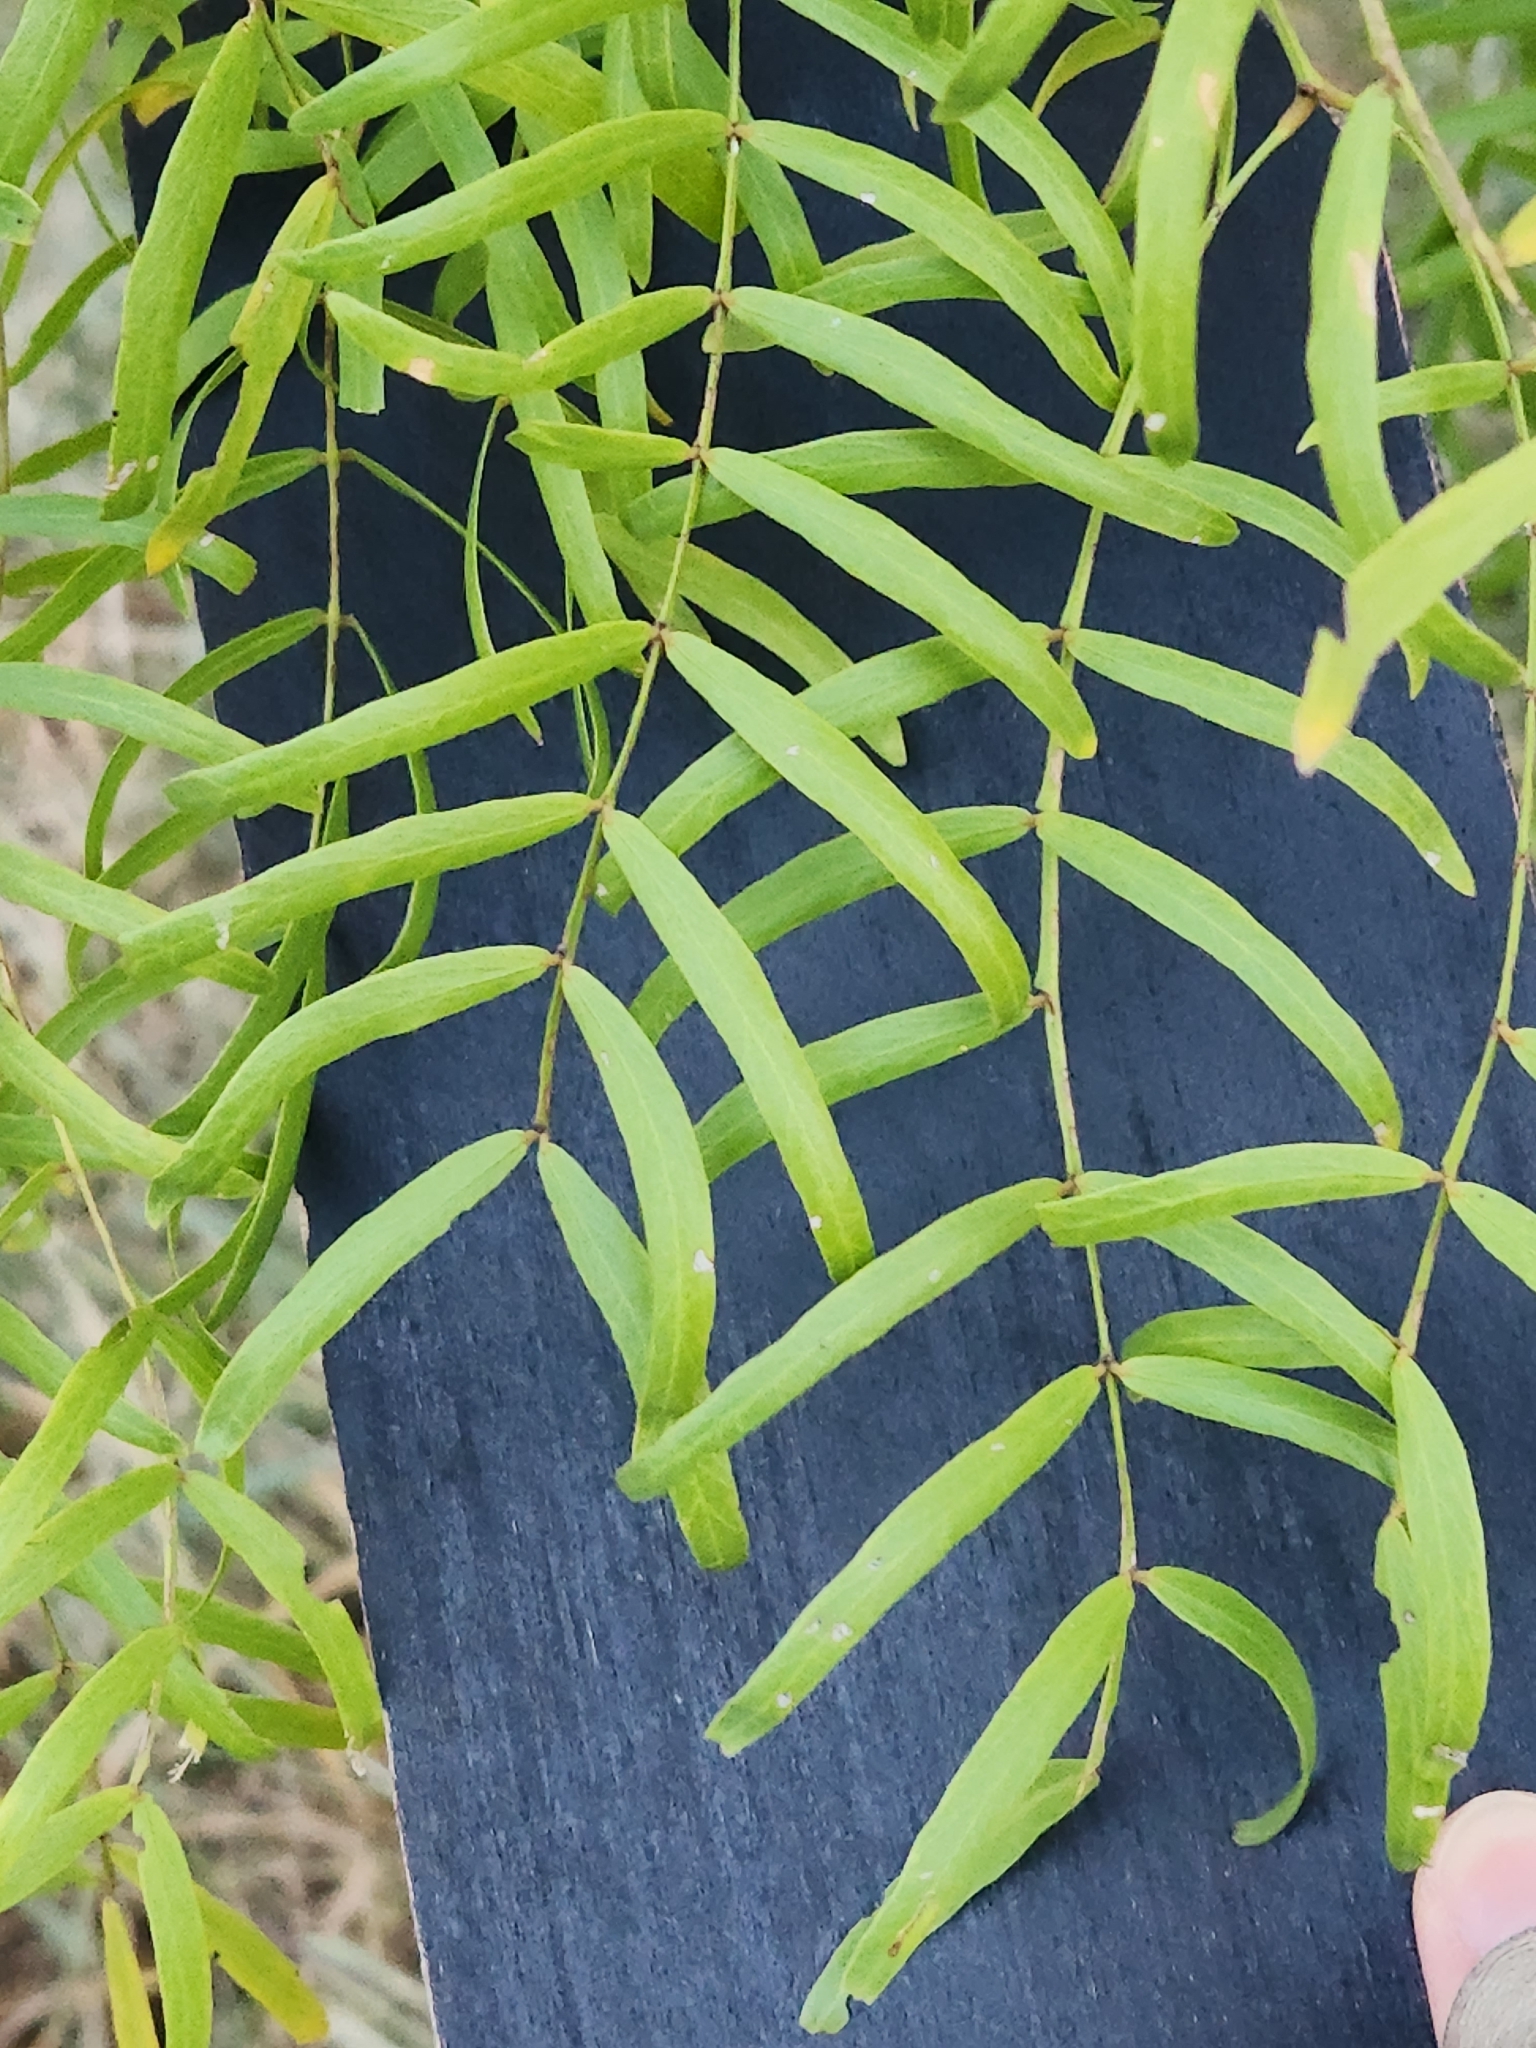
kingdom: Plantae
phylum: Tracheophyta
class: Magnoliopsida
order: Fabales
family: Fabaceae
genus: Prosopis
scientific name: Prosopis glandulosa
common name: Honey mesquite
